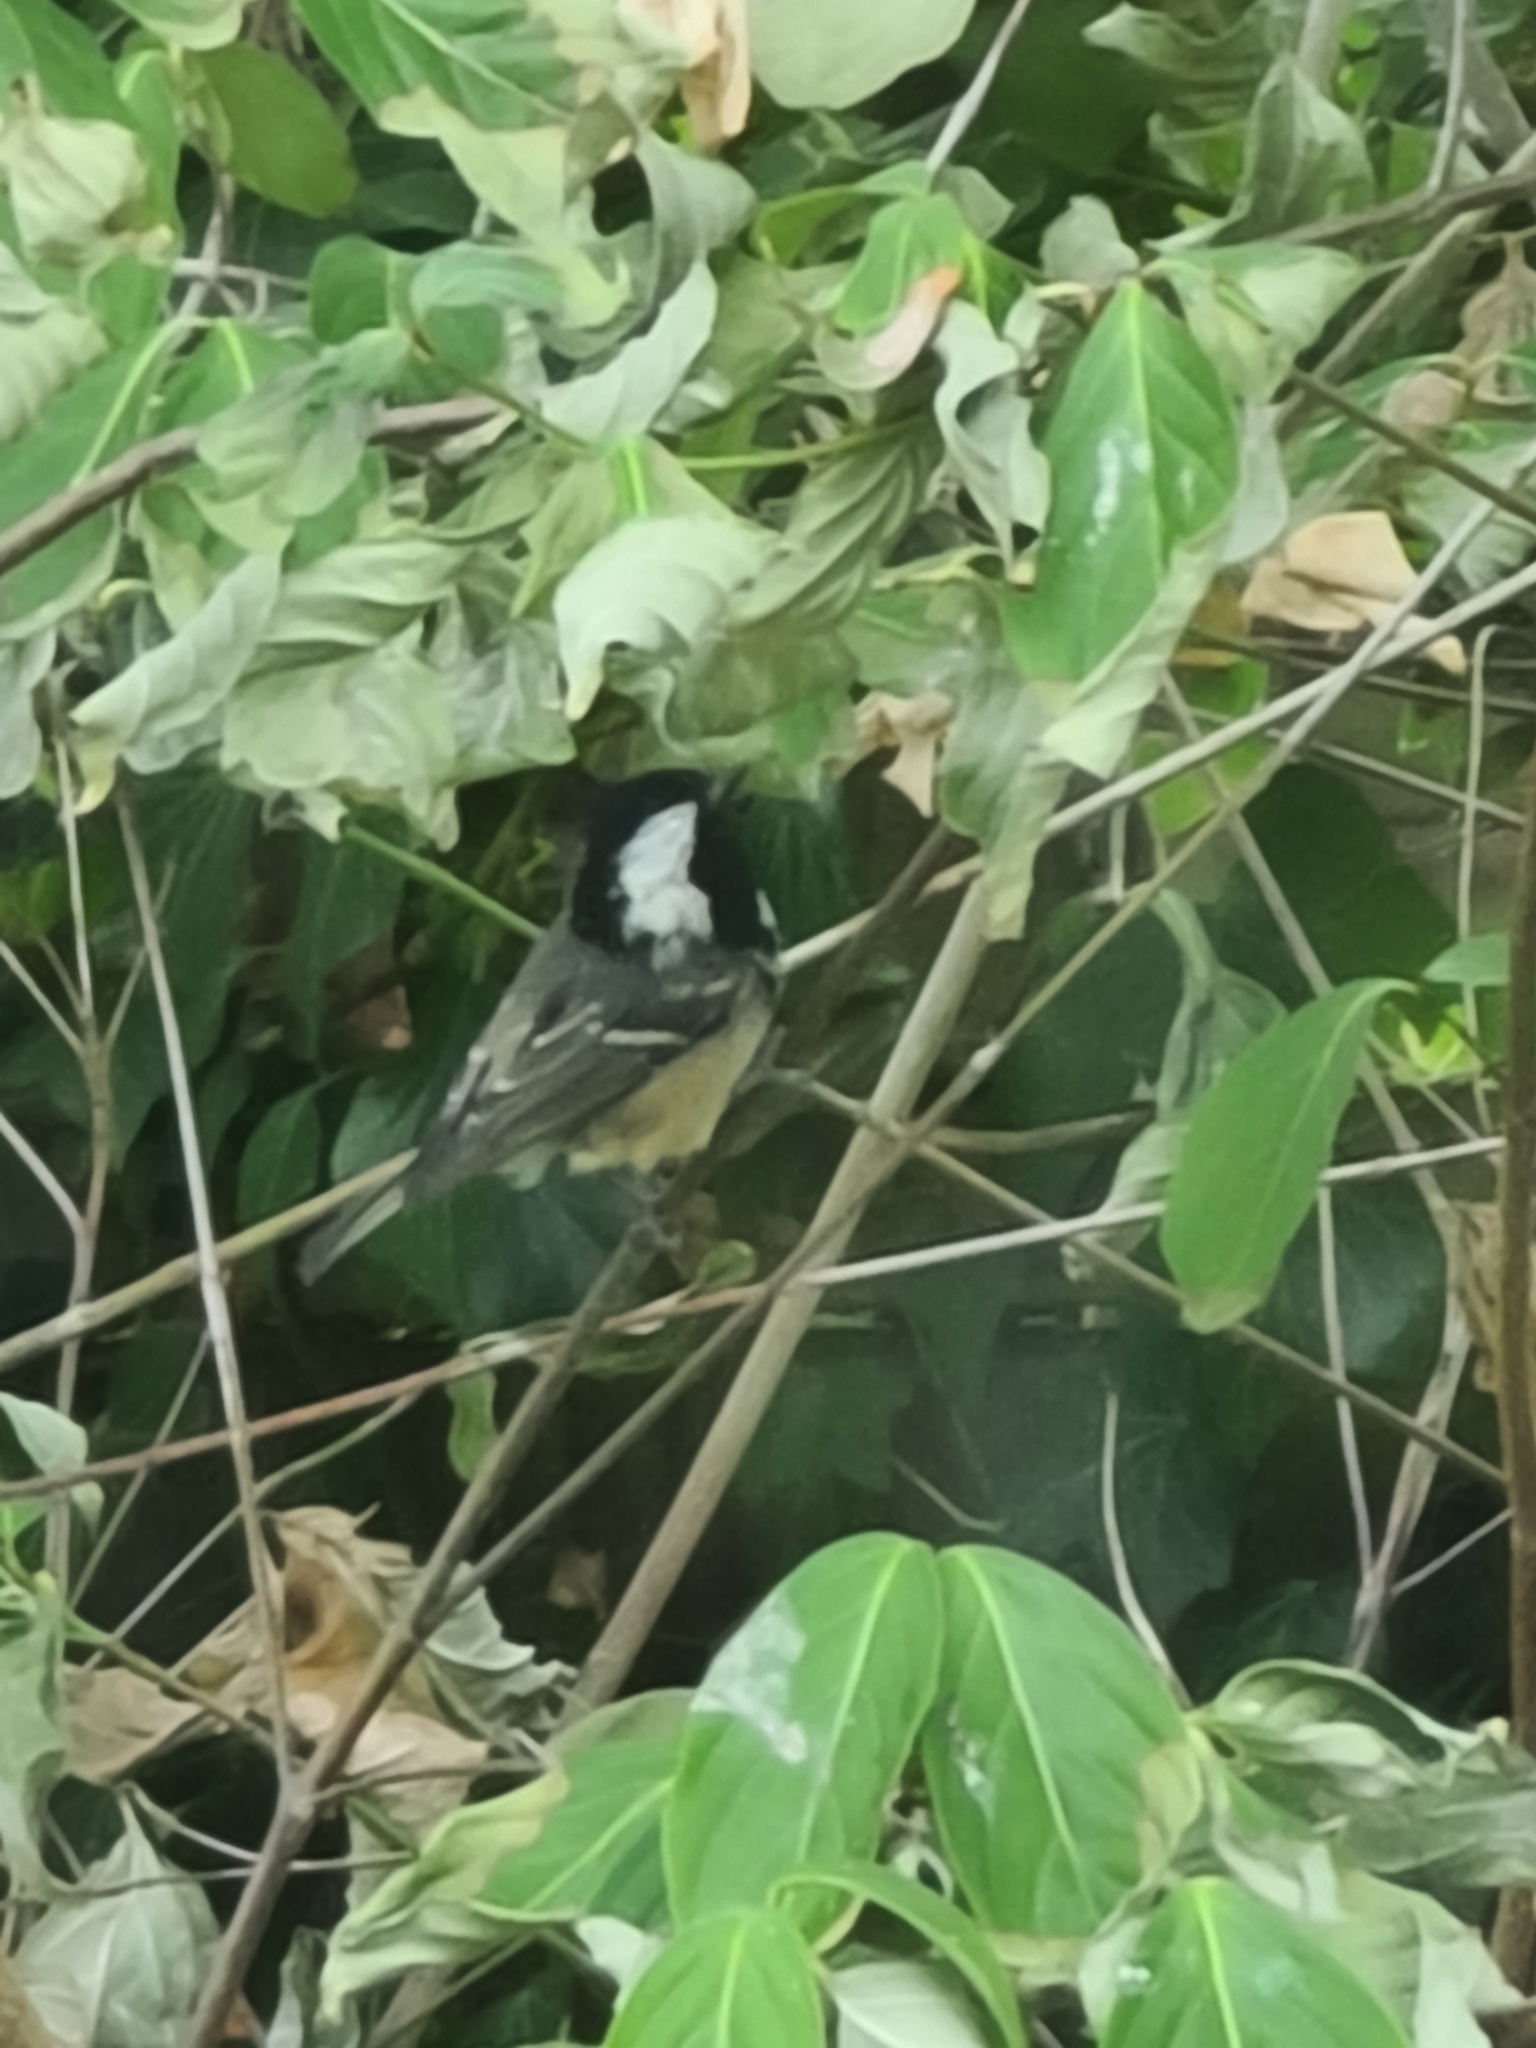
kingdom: Animalia
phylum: Chordata
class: Aves
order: Passeriformes
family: Paridae
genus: Periparus
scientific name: Periparus ater
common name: Coal tit
